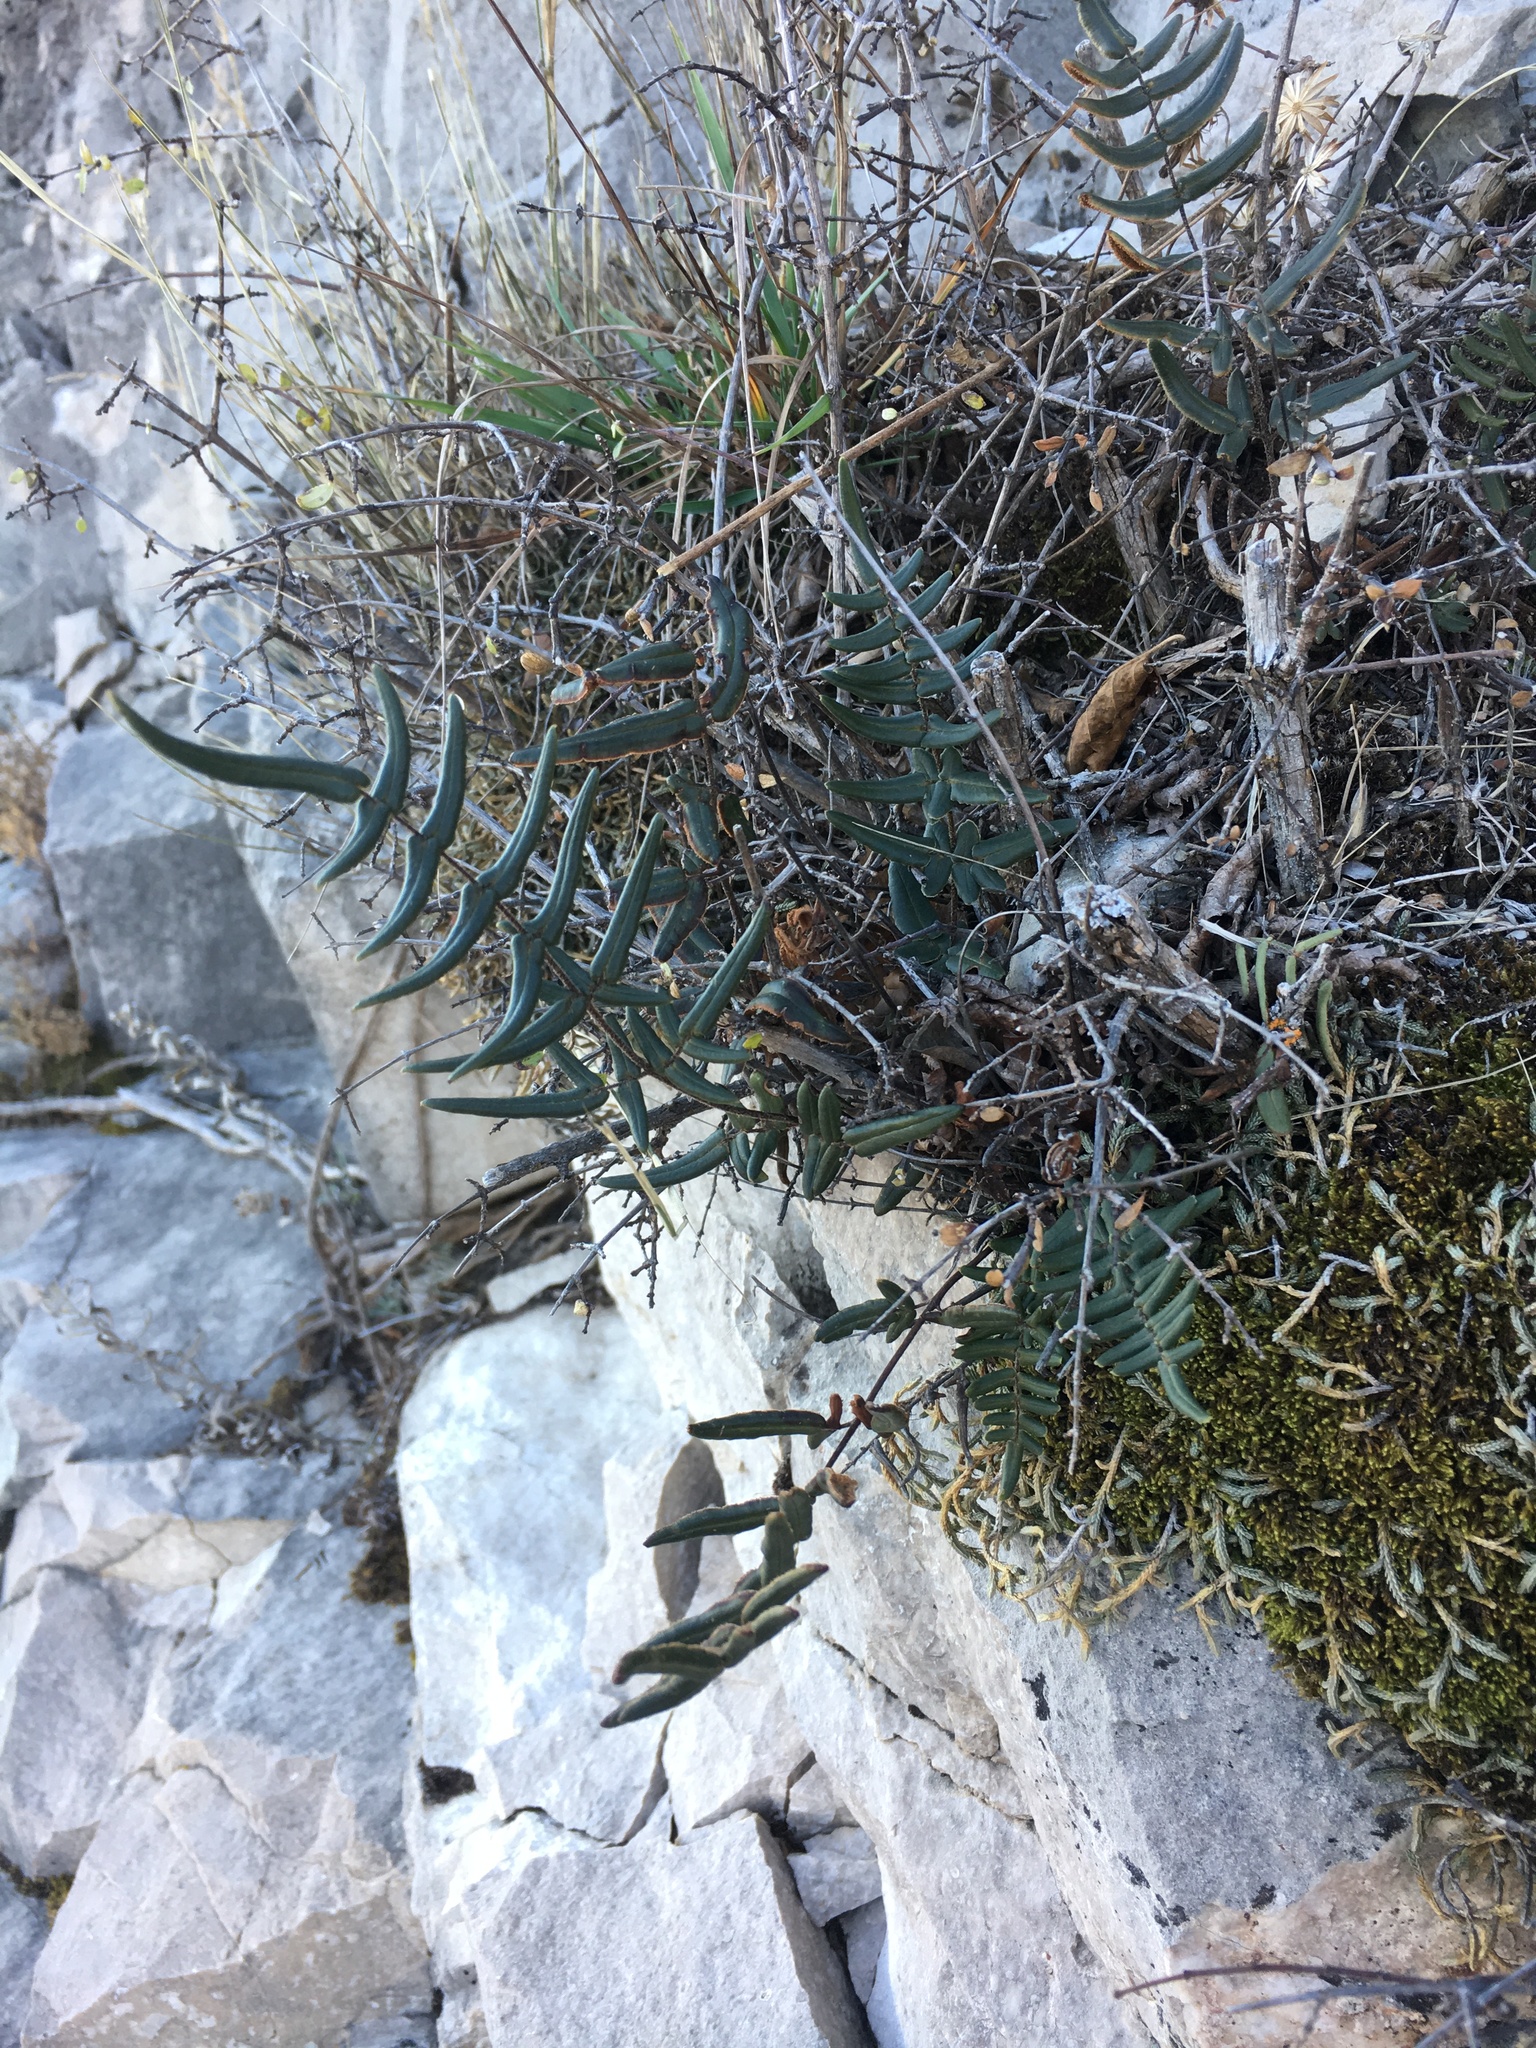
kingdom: Plantae
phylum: Tracheophyta
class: Polypodiopsida
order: Polypodiales
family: Pteridaceae
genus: Pellaea
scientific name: Pellaea atropurpurea
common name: Hairy cliffbrake
